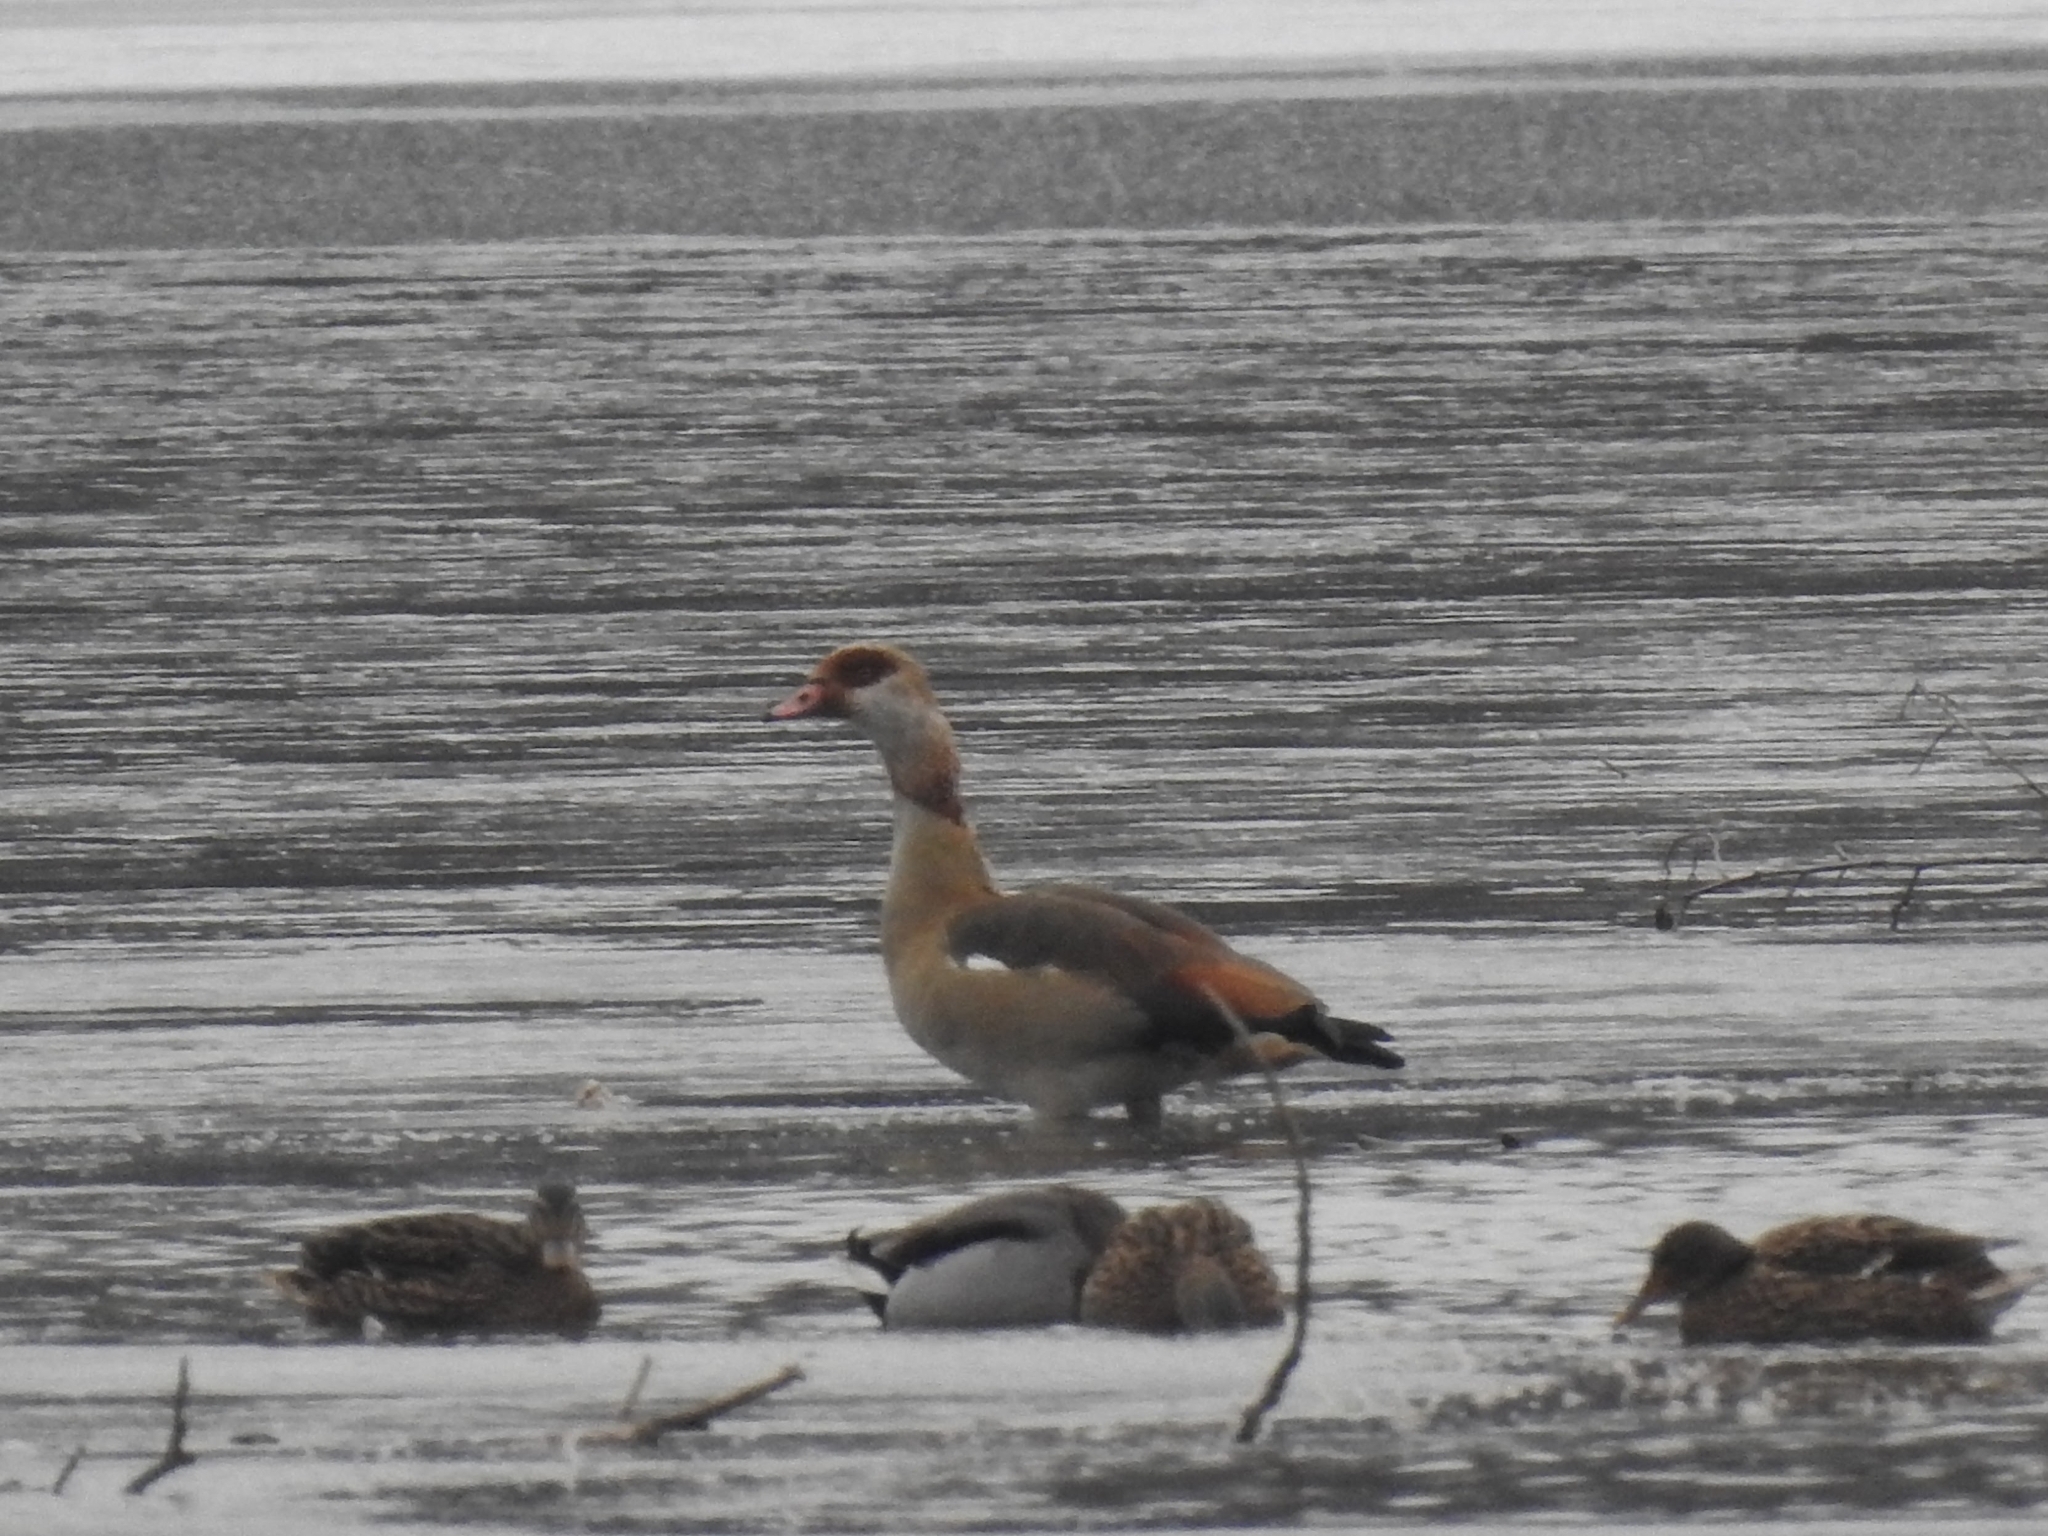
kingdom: Animalia
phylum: Chordata
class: Aves
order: Anseriformes
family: Anatidae
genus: Alopochen
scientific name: Alopochen aegyptiaca
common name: Egyptian goose
